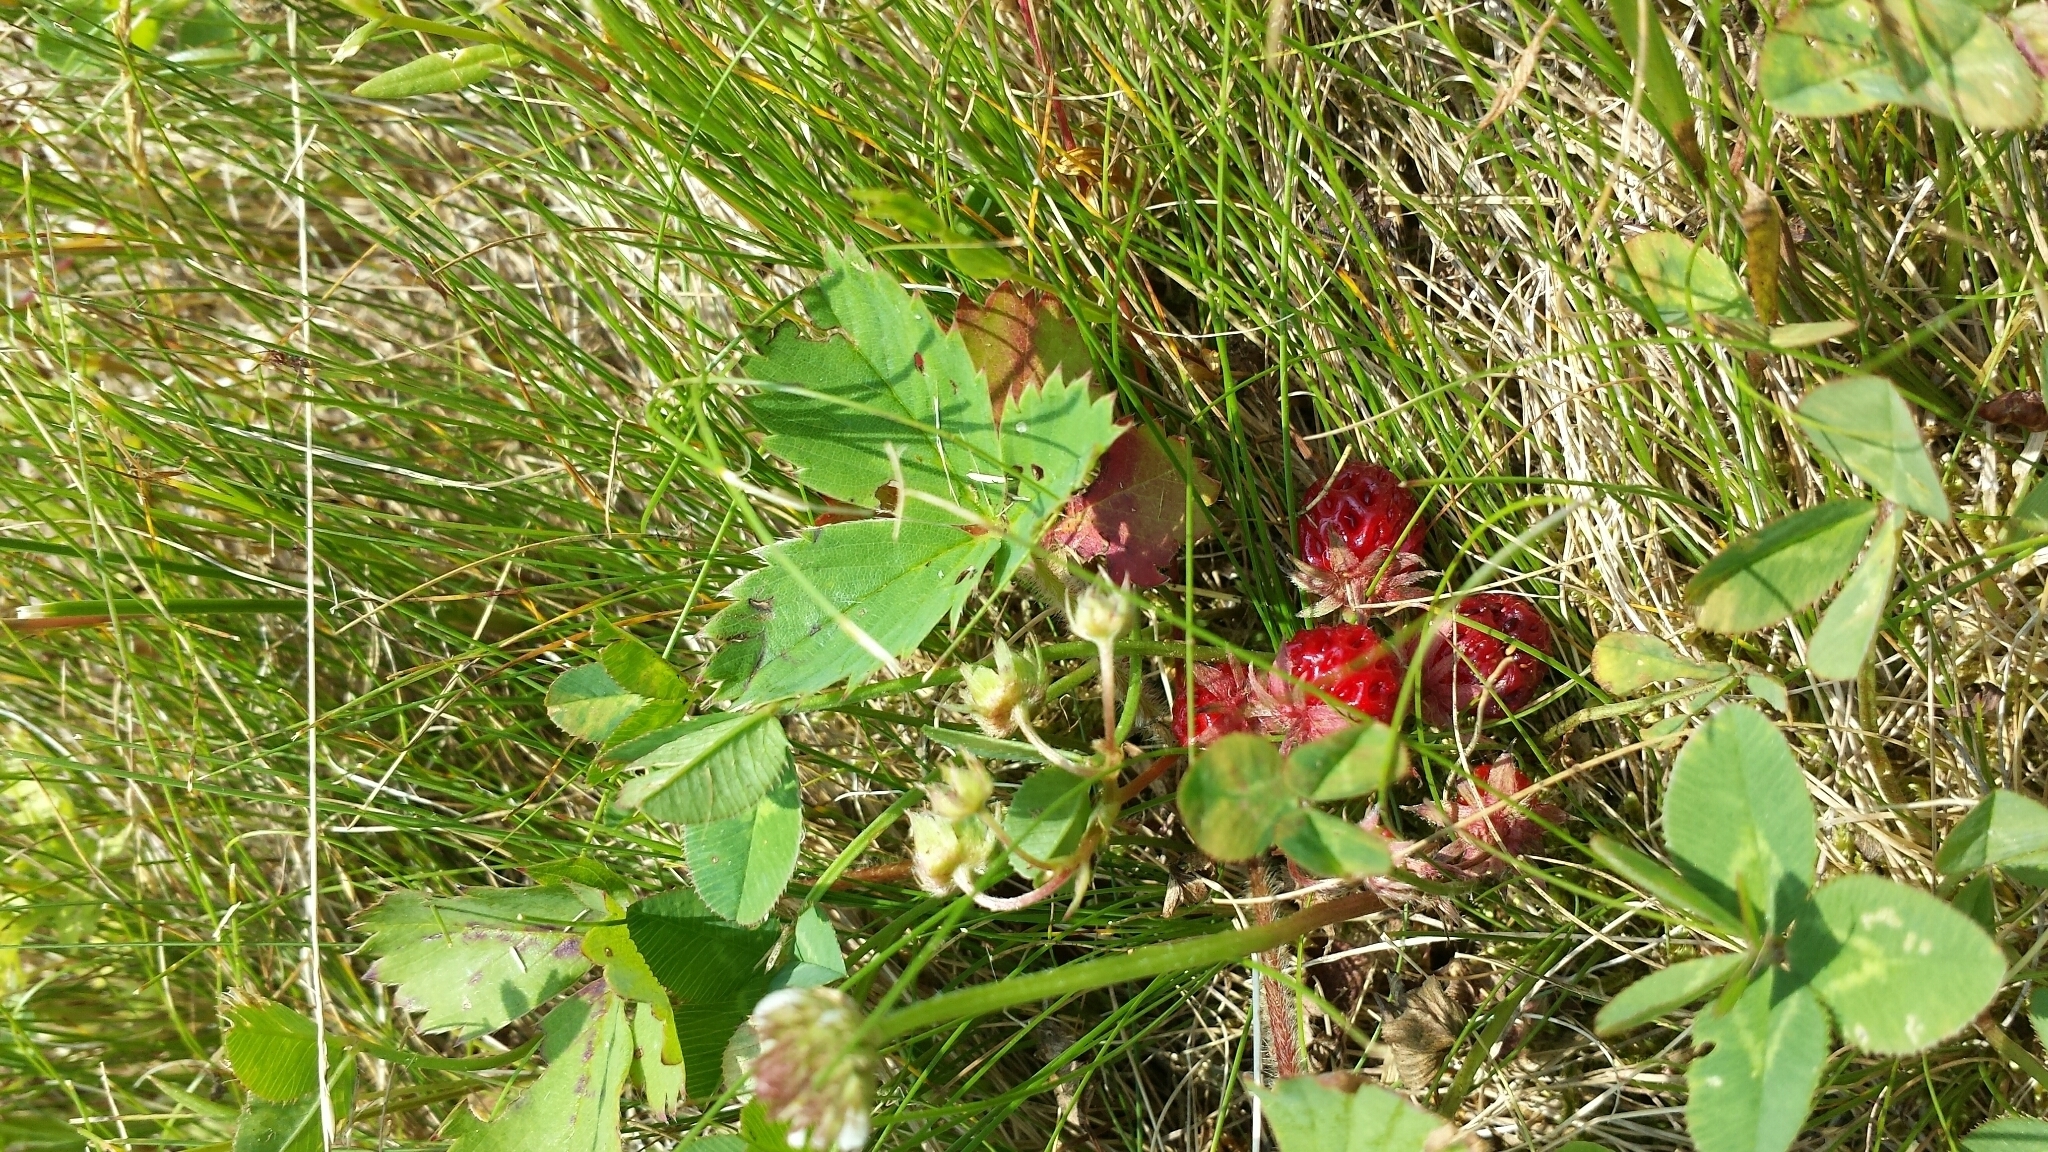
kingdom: Plantae
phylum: Tracheophyta
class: Magnoliopsida
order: Rosales
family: Rosaceae
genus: Fragaria
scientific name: Fragaria virginiana
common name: Thickleaved wild strawberry
